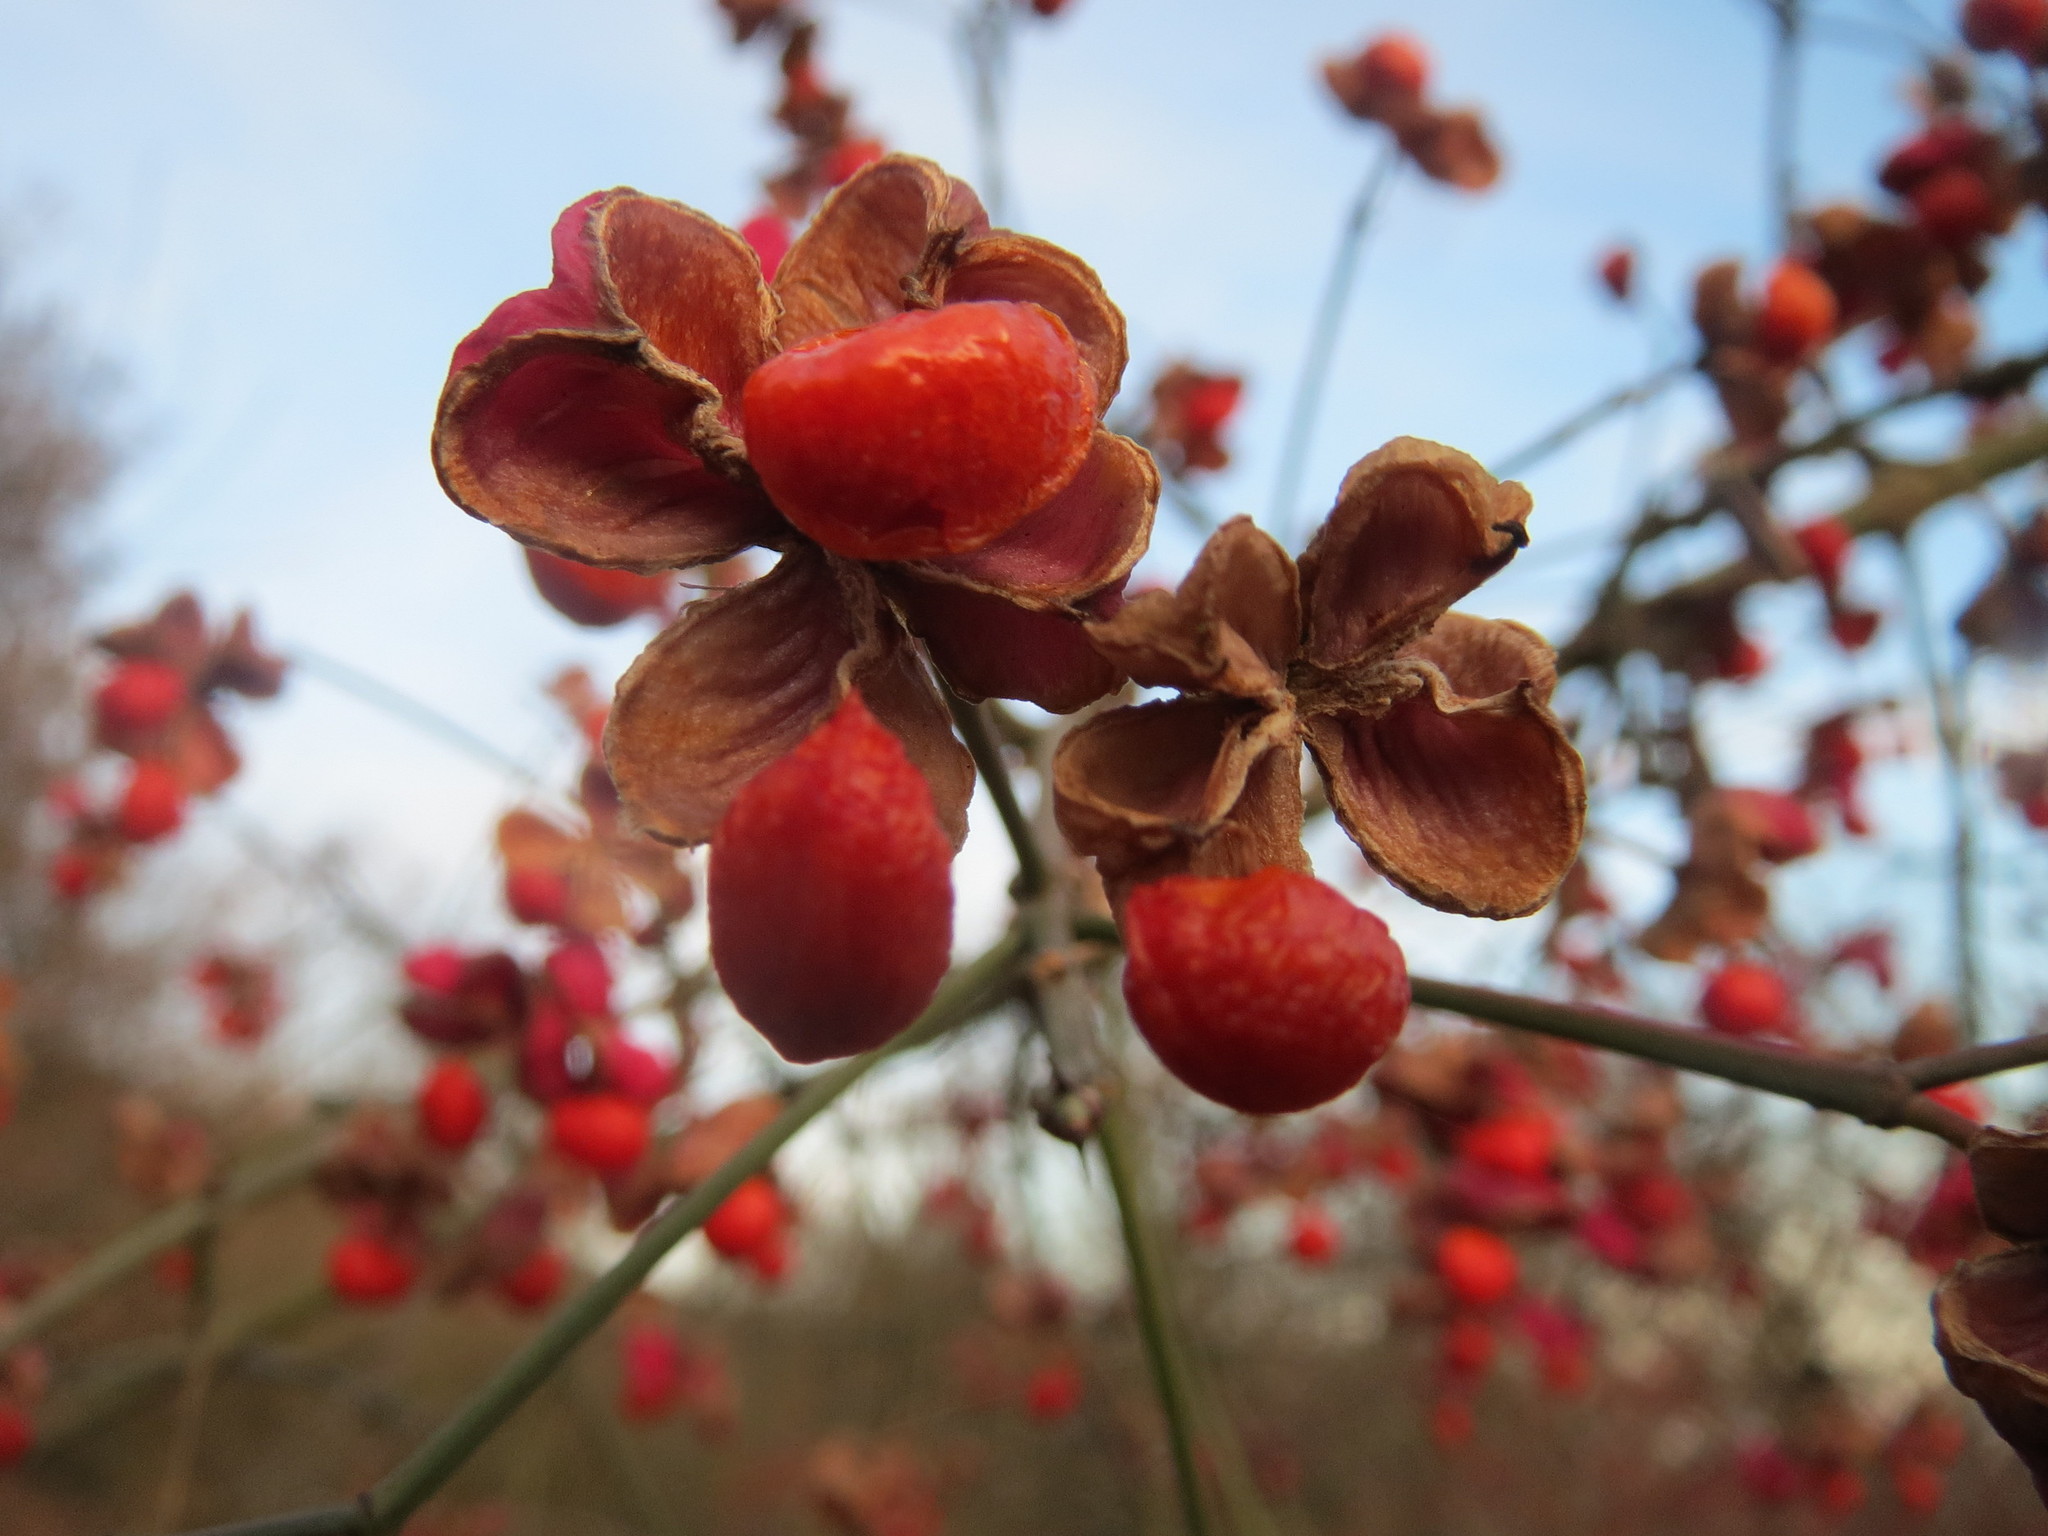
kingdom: Plantae
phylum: Tracheophyta
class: Magnoliopsida
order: Celastrales
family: Celastraceae
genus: Euonymus
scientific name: Euonymus europaeus
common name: Spindle
